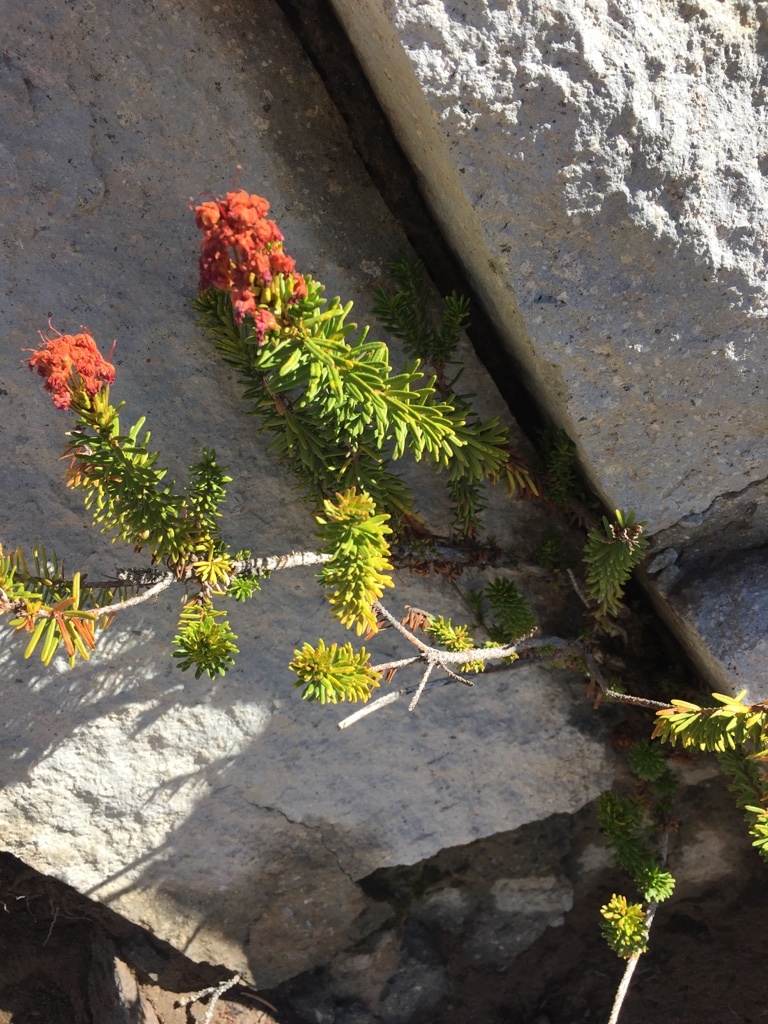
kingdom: Plantae
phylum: Tracheophyta
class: Magnoliopsida
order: Ericales
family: Ericaceae
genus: Phyllodoce
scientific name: Phyllodoce breweri
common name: Brewer's mountain-heather
